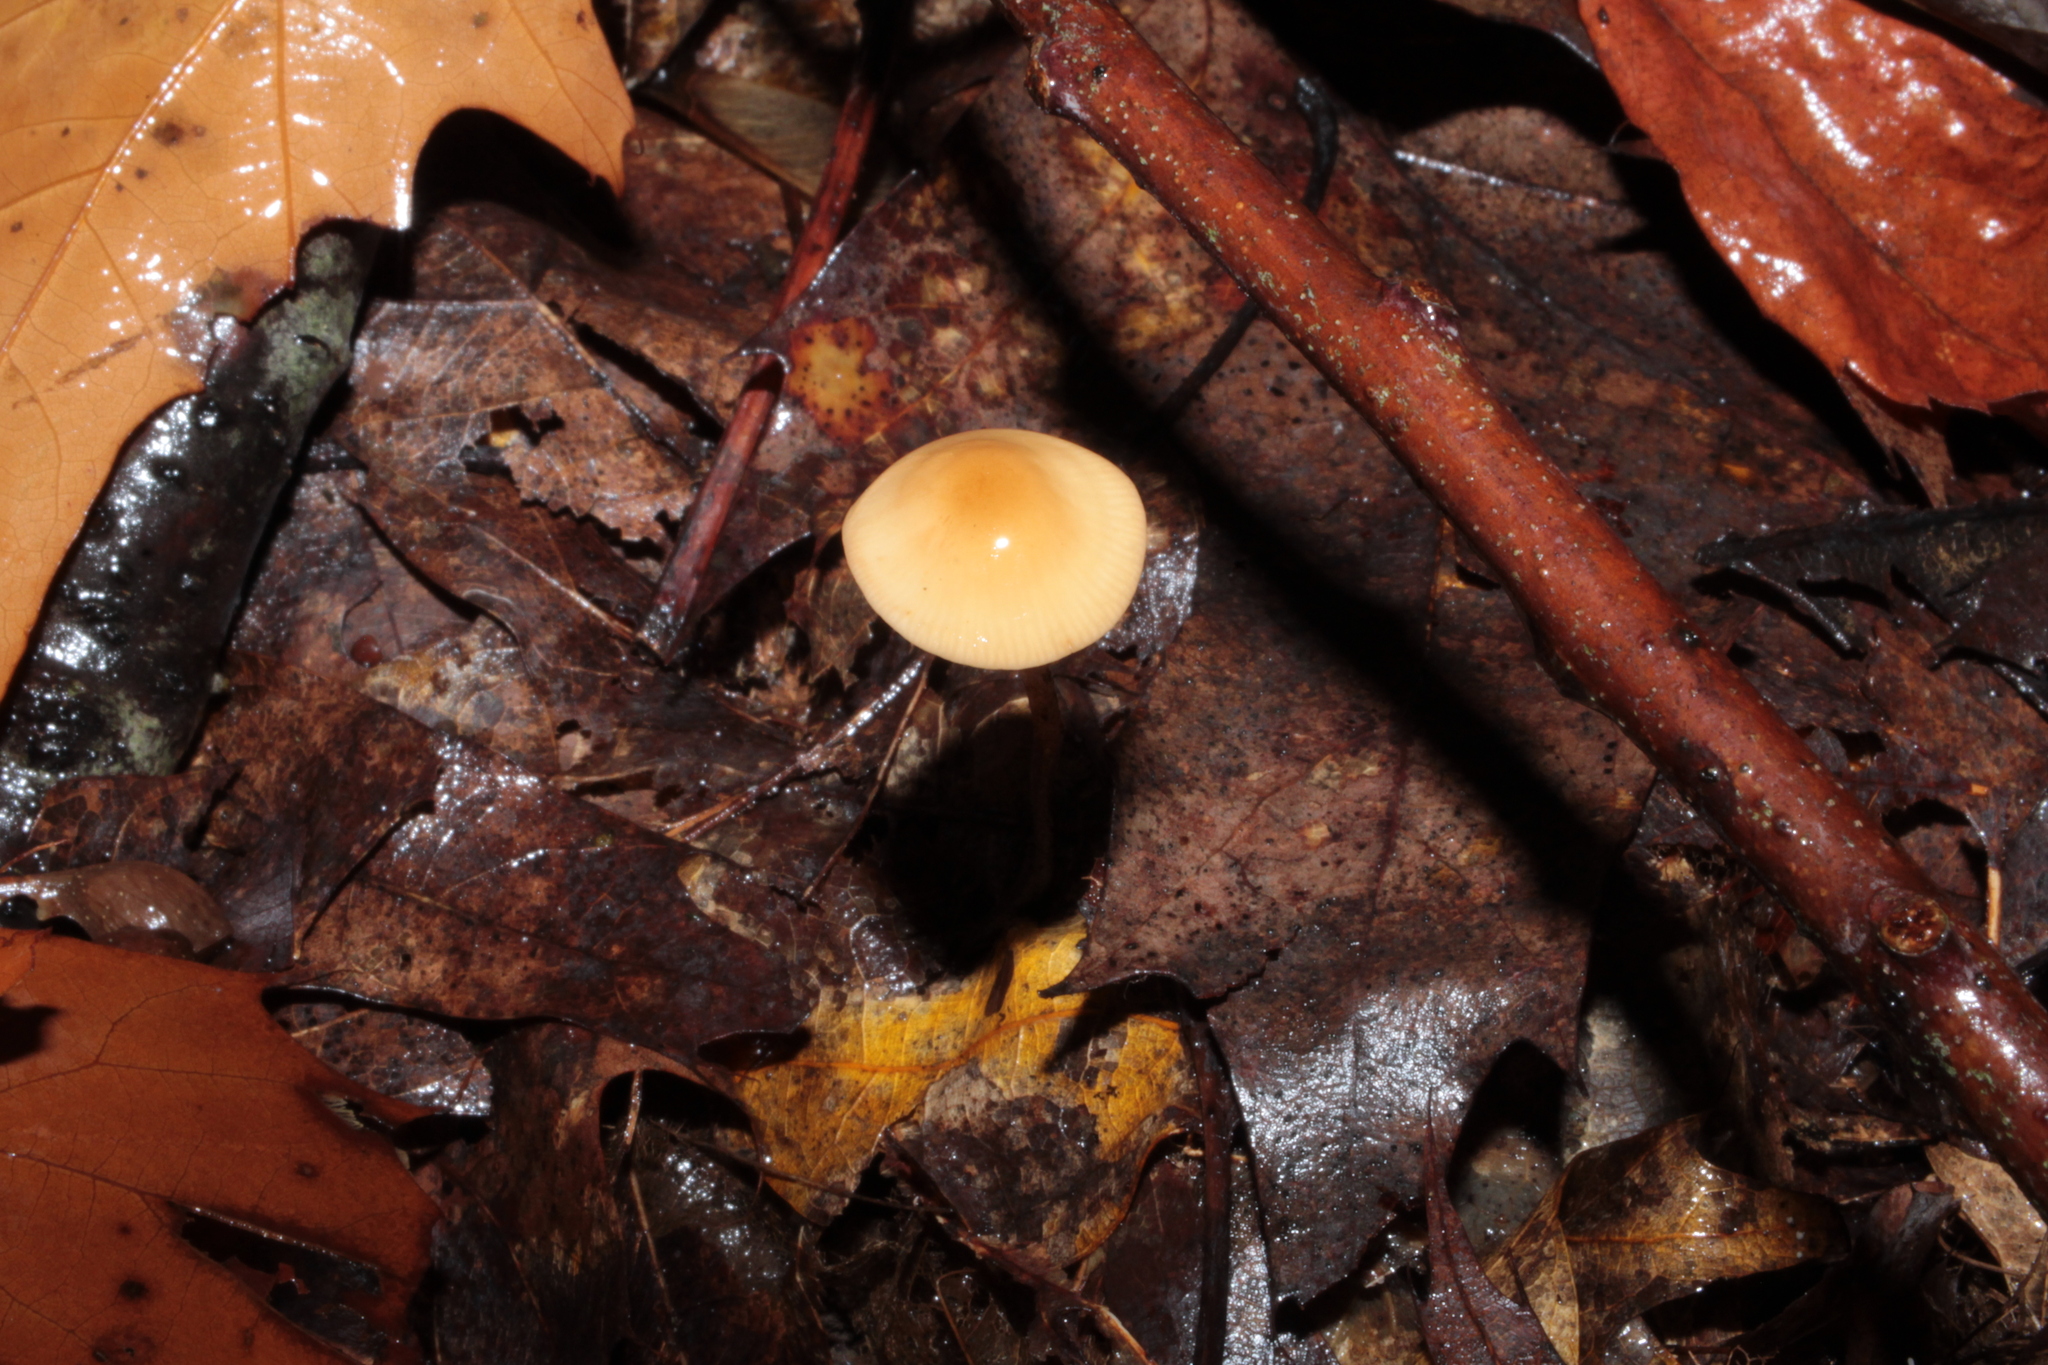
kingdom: Fungi
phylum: Basidiomycota
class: Agaricomycetes
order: Agaricales
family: Physalacriaceae
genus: Rhizomarasmius
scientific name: Rhizomarasmius pyrrhocephalus
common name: Hairy long stem marasmius
